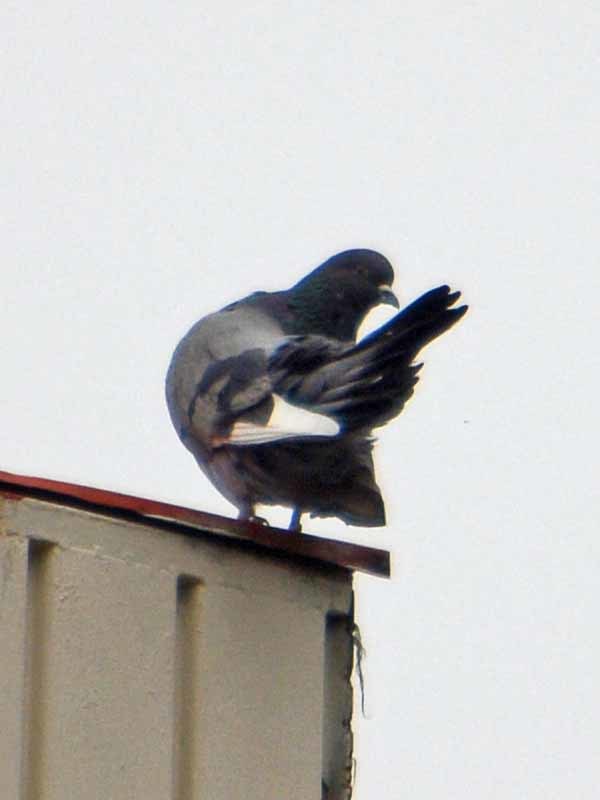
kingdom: Animalia
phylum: Chordata
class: Aves
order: Columbiformes
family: Columbidae
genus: Columba
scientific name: Columba livia
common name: Rock pigeon
